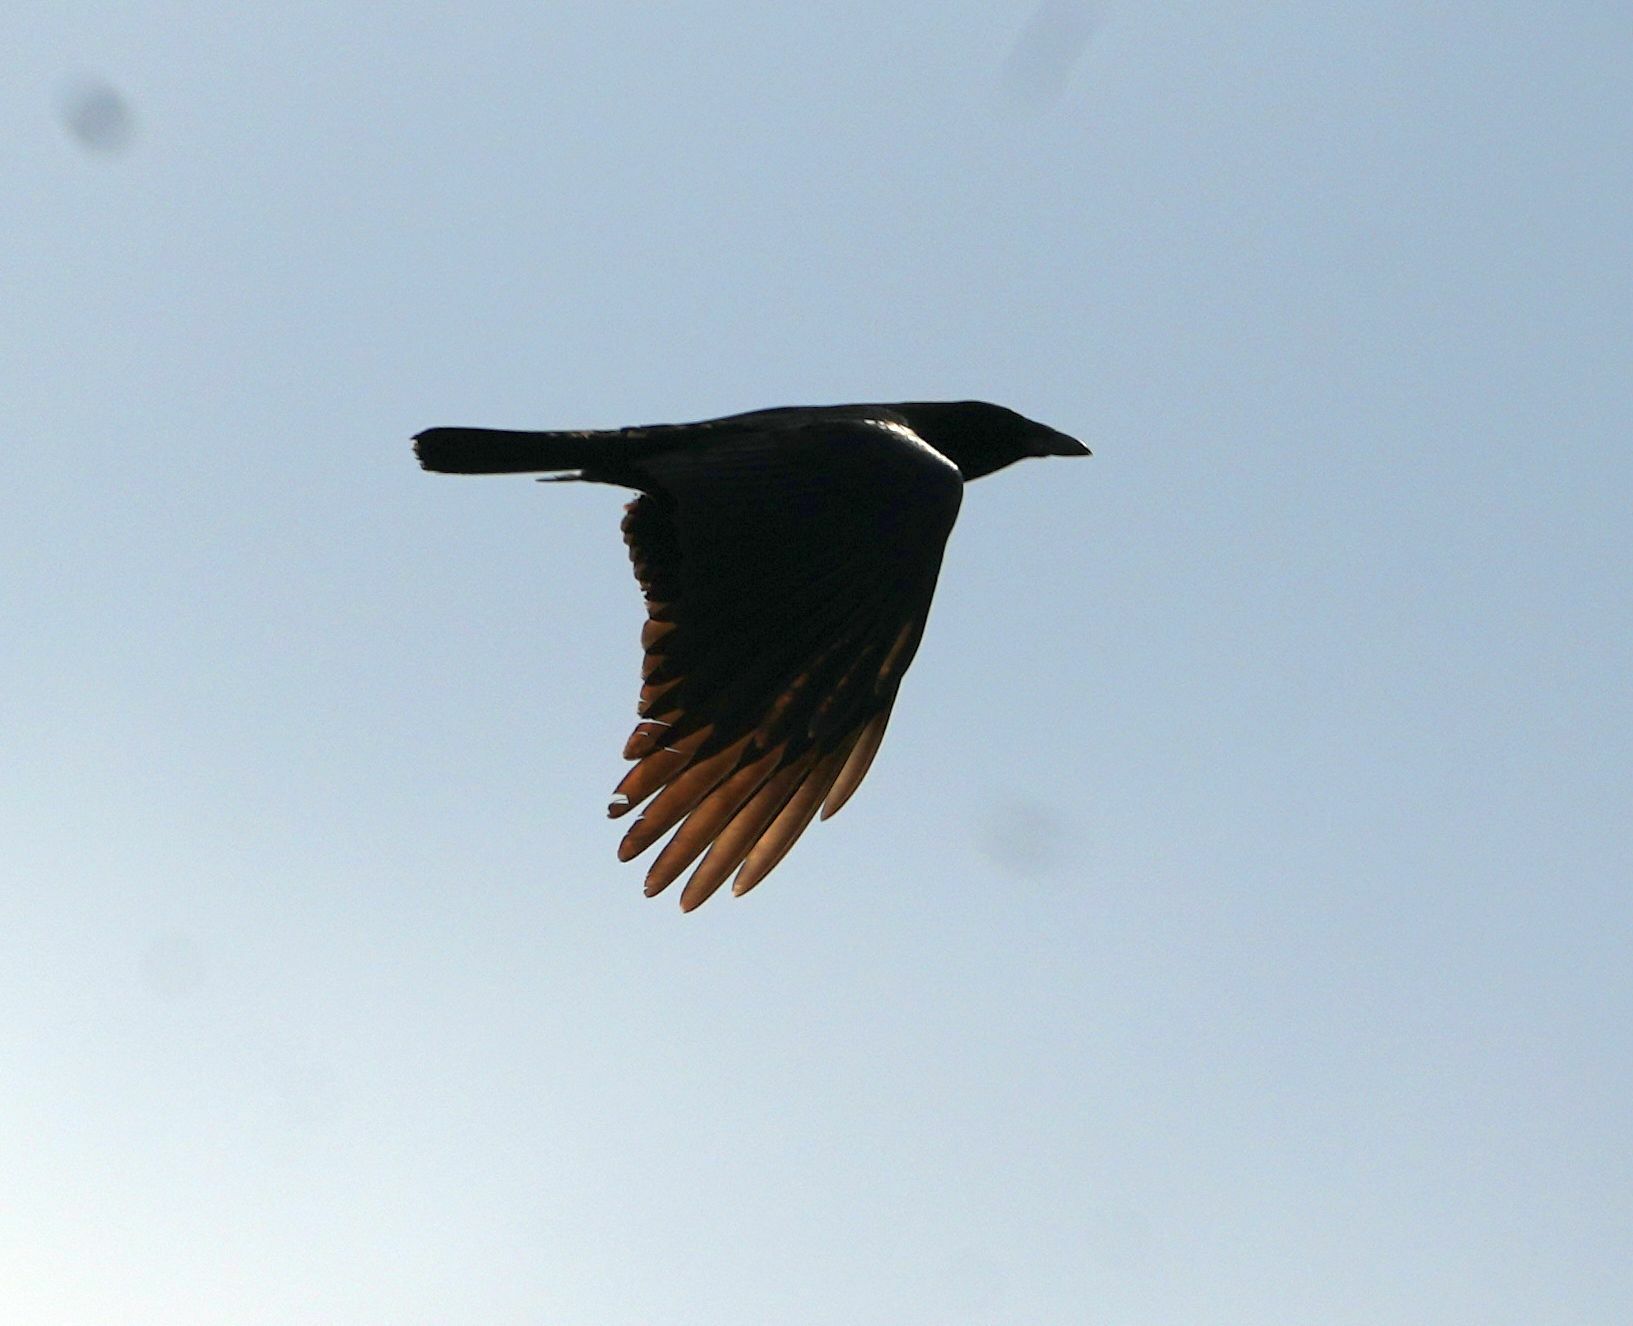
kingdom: Animalia
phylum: Chordata
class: Aves
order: Passeriformes
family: Corvidae
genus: Corvus
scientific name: Corvus brachyrhynchos
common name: American crow
